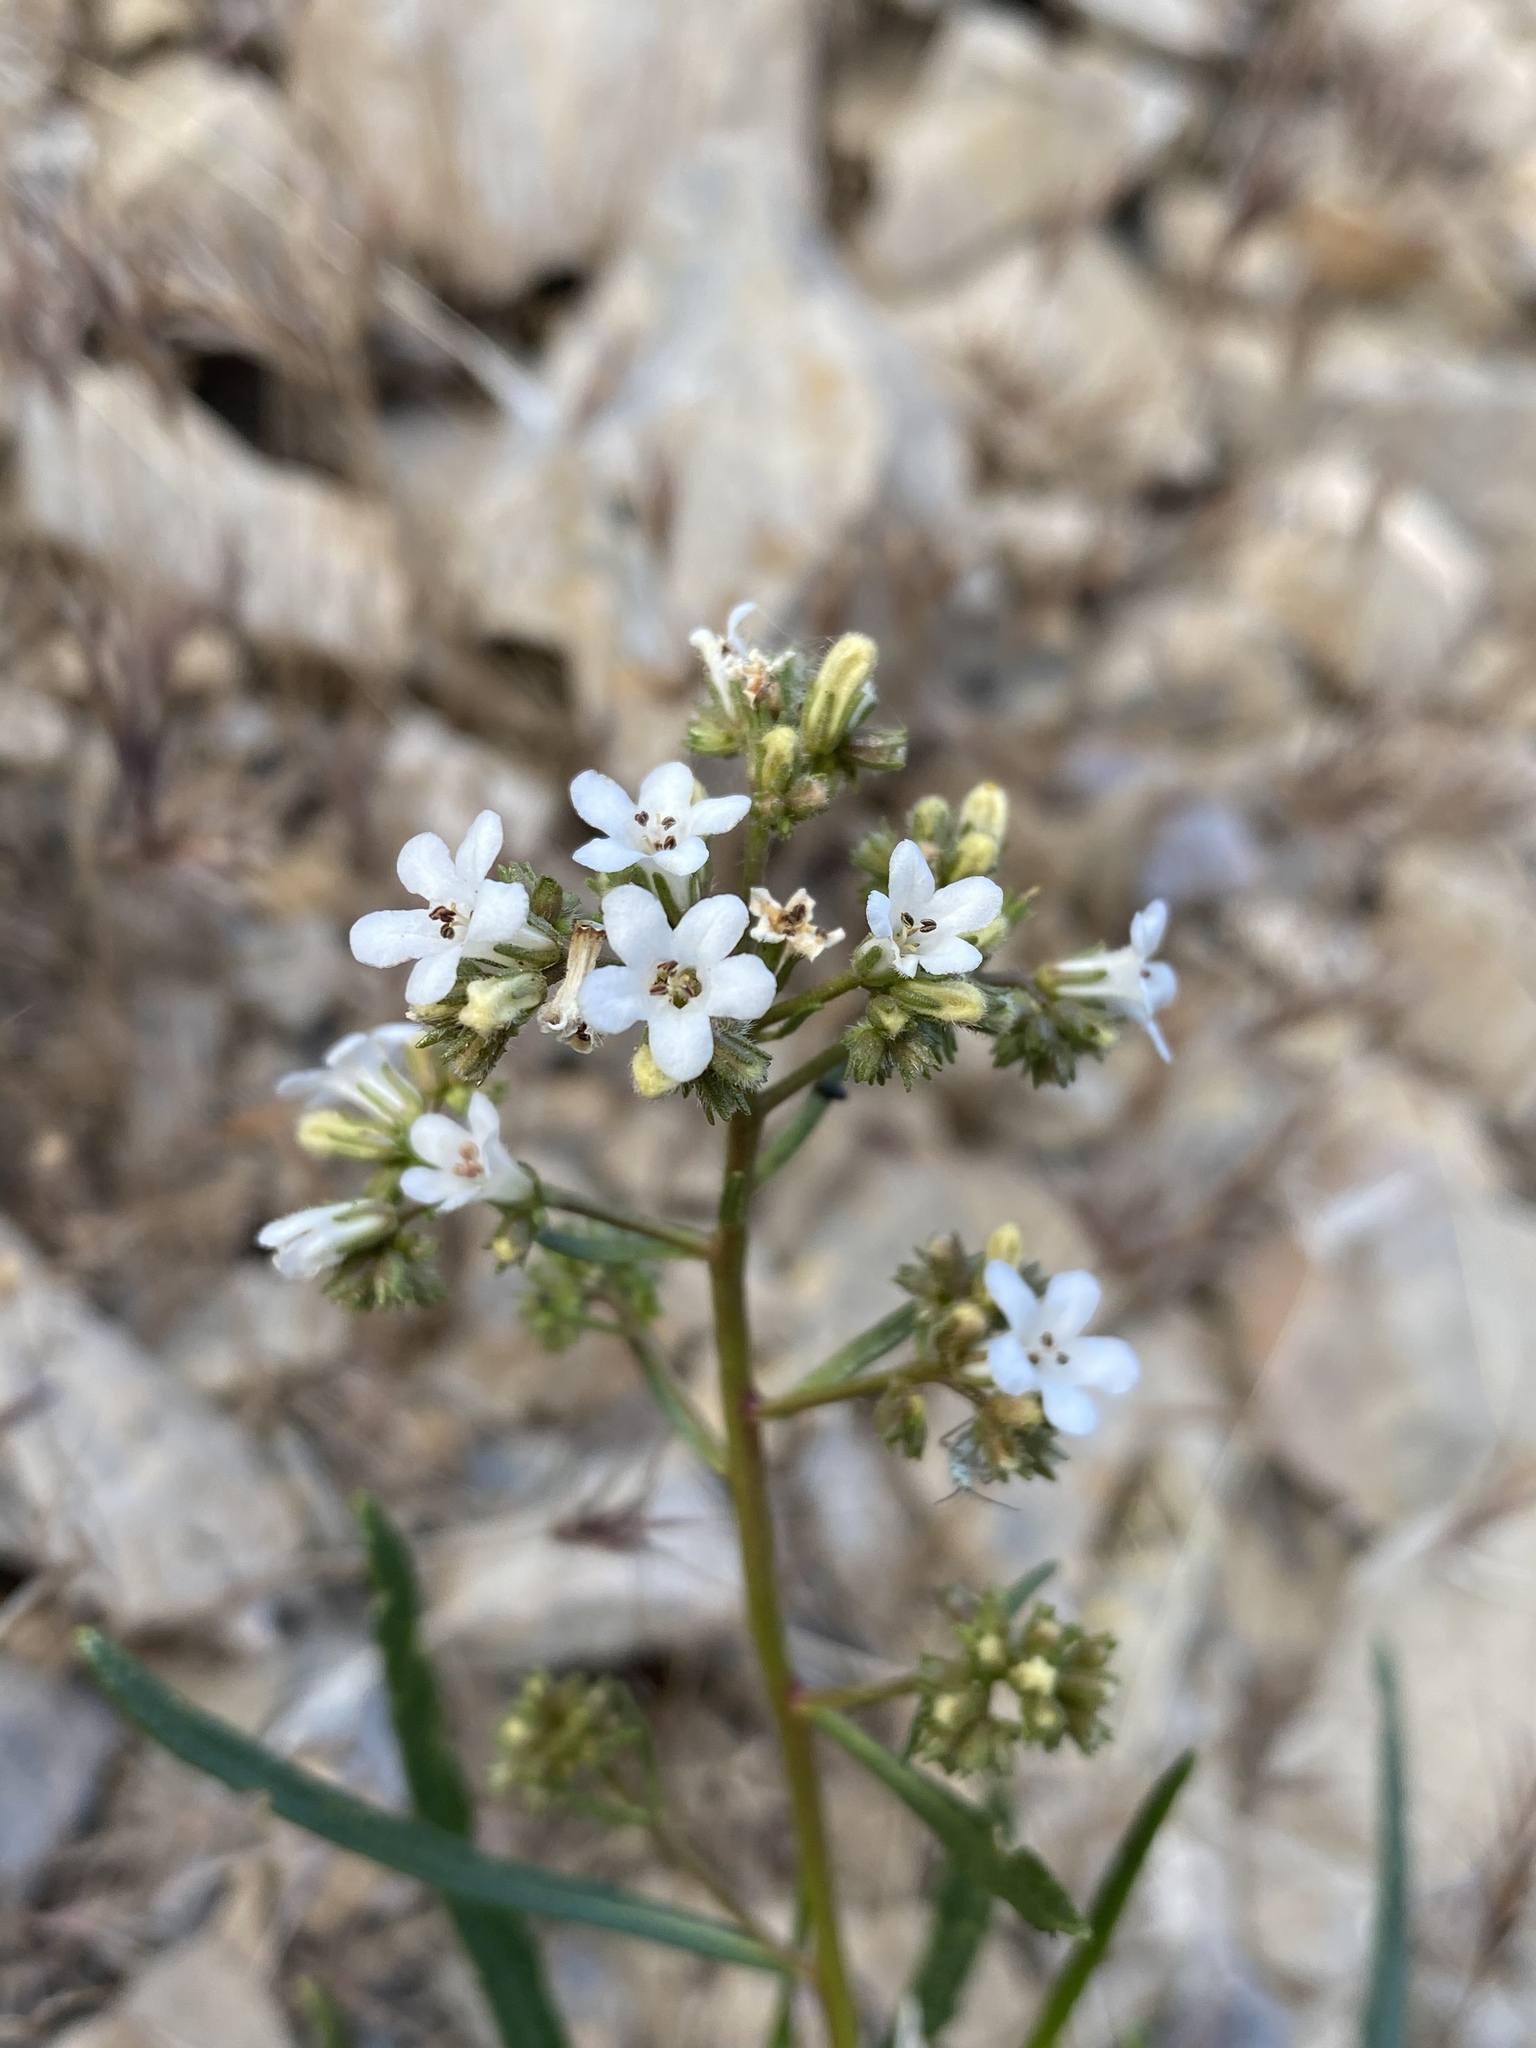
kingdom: Plantae
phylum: Tracheophyta
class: Magnoliopsida
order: Boraginales
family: Namaceae
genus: Eriodictyon
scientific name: Eriodictyon angustifolium
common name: Narrow-leaf yerba santa
